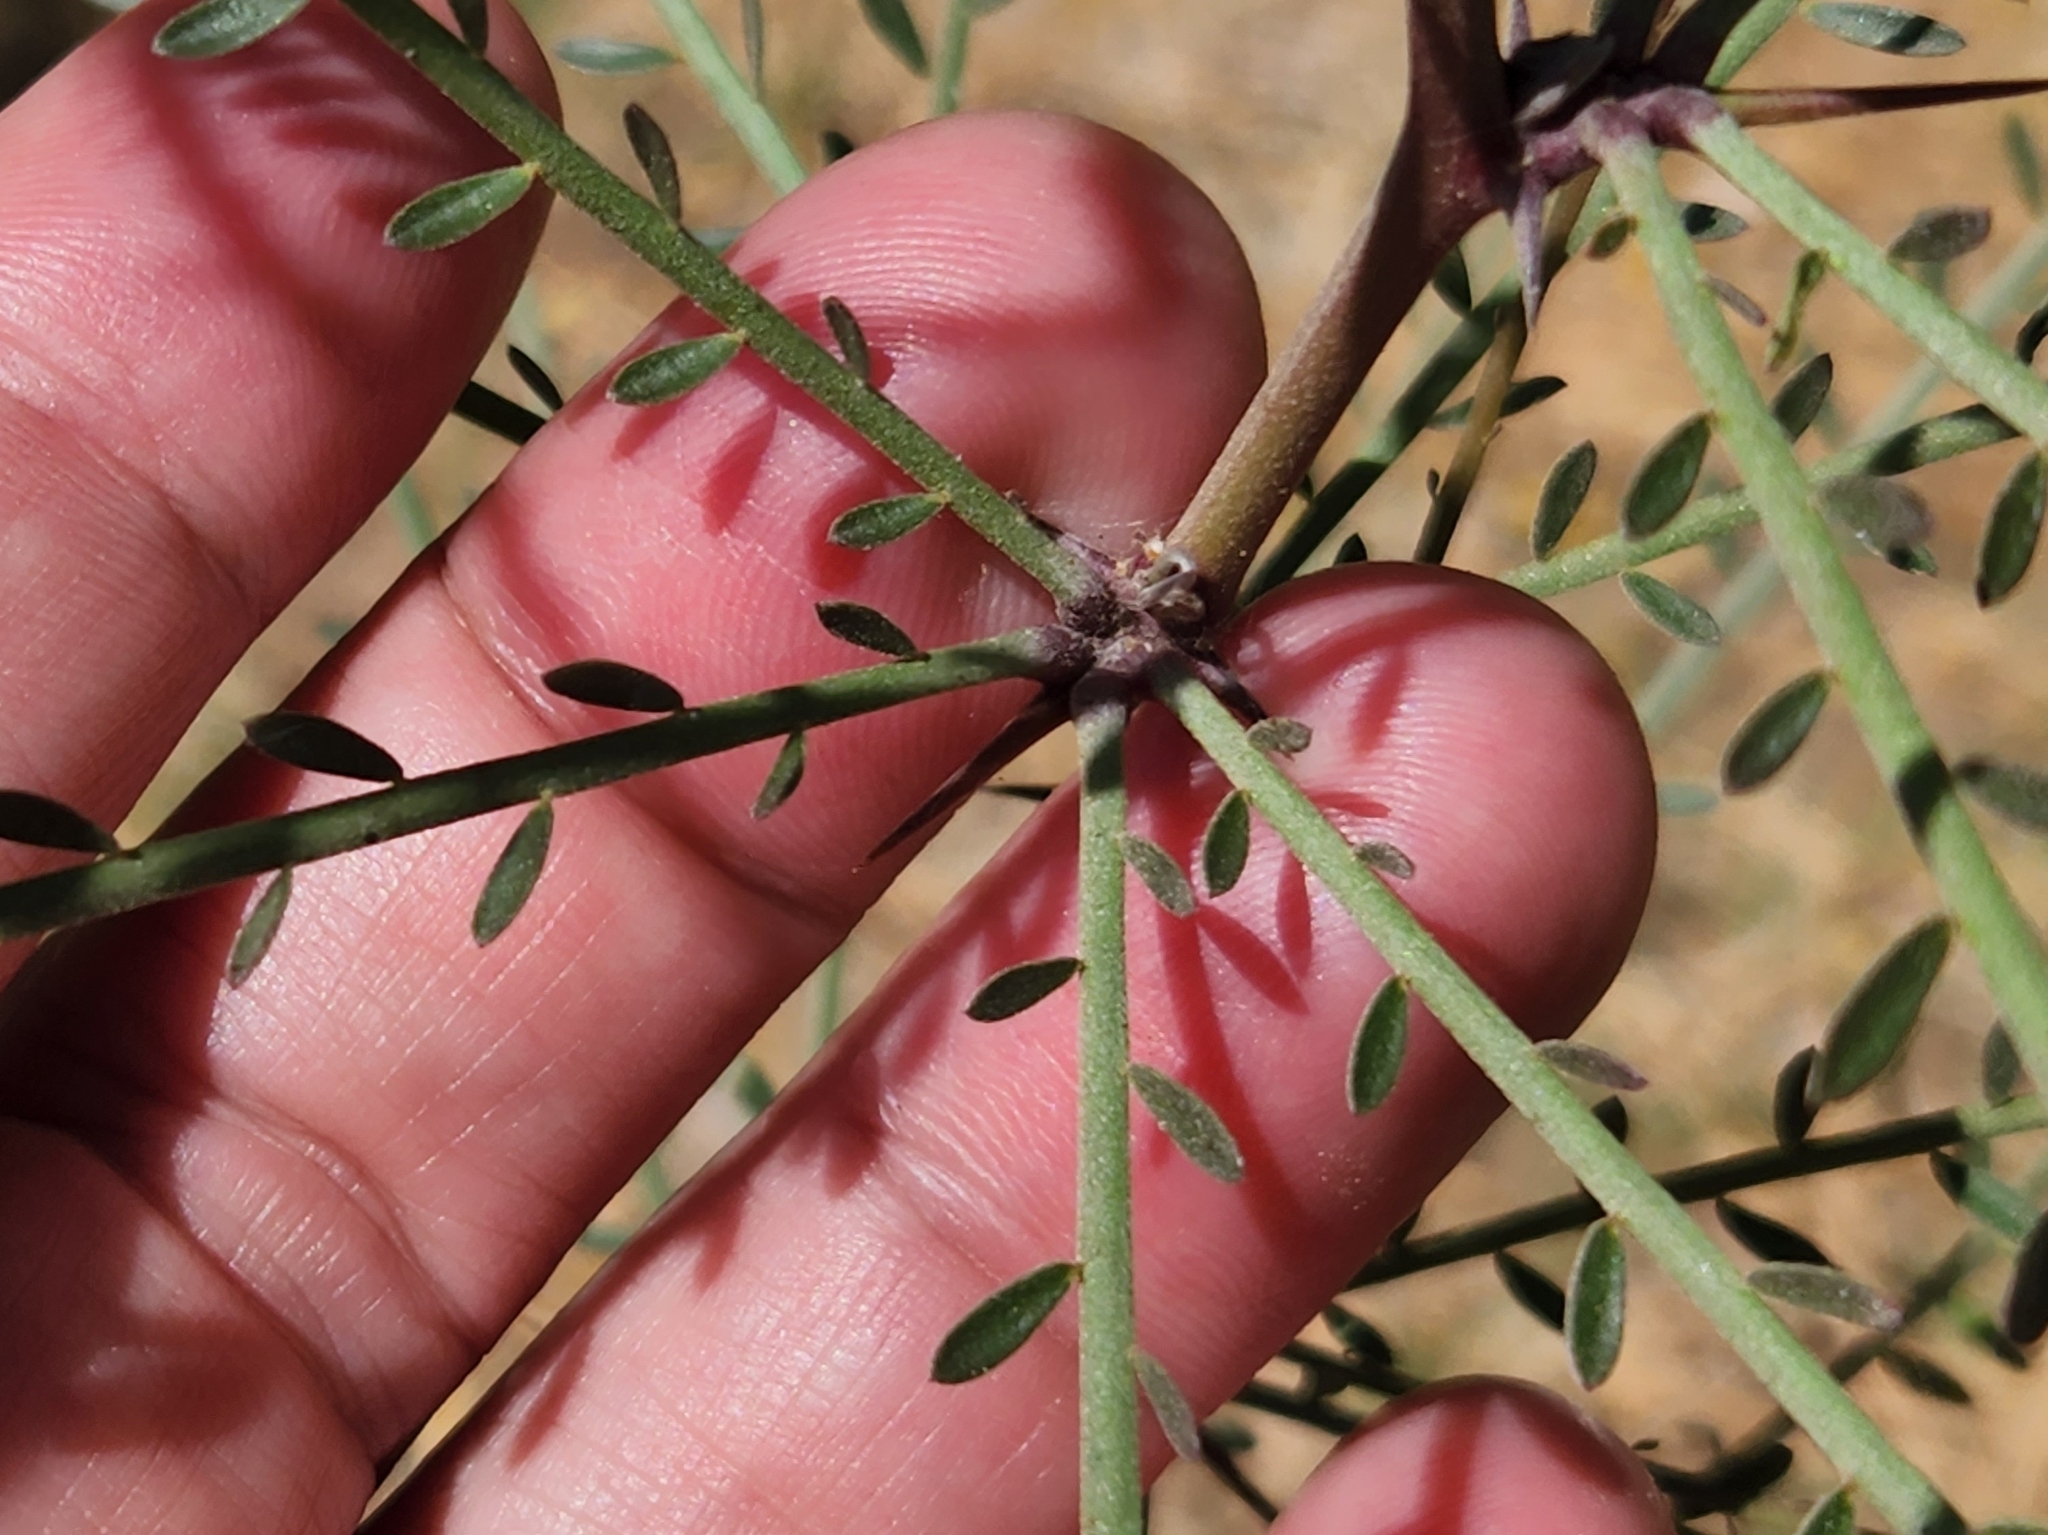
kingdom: Plantae
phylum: Tracheophyta
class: Magnoliopsida
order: Fabales
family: Fabaceae
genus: Parkinsonia
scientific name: Parkinsonia aculeata
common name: Jerusalem thorn
